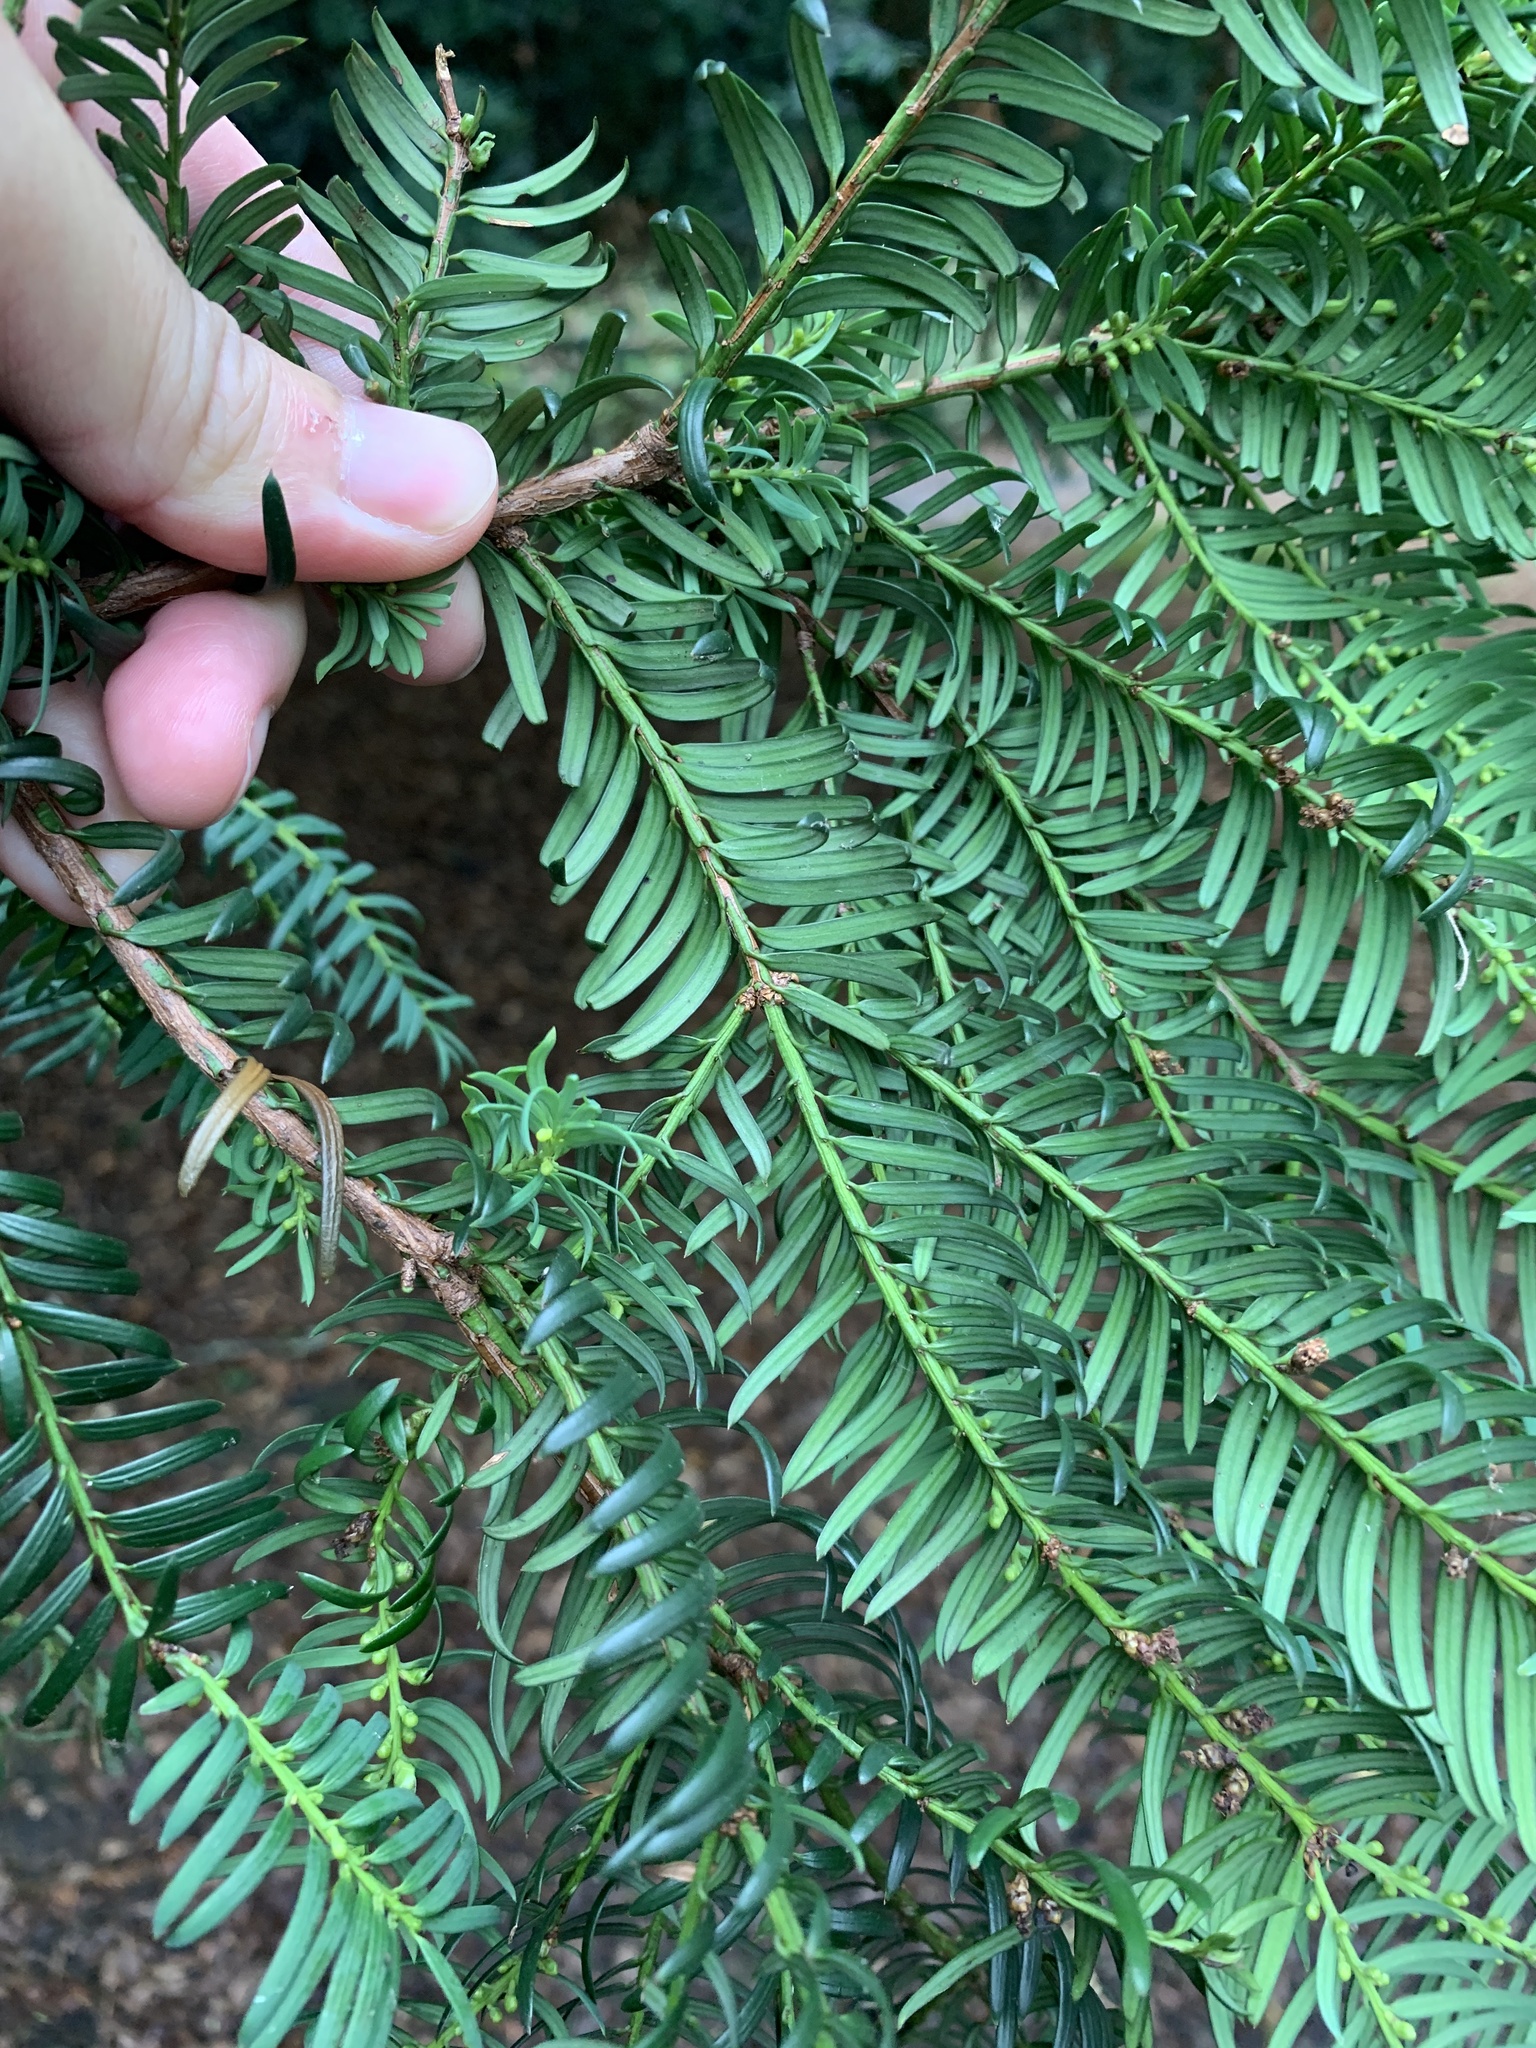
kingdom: Plantae
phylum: Tracheophyta
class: Pinopsida
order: Pinales
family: Taxaceae
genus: Taxus
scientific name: Taxus baccata
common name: Yew
